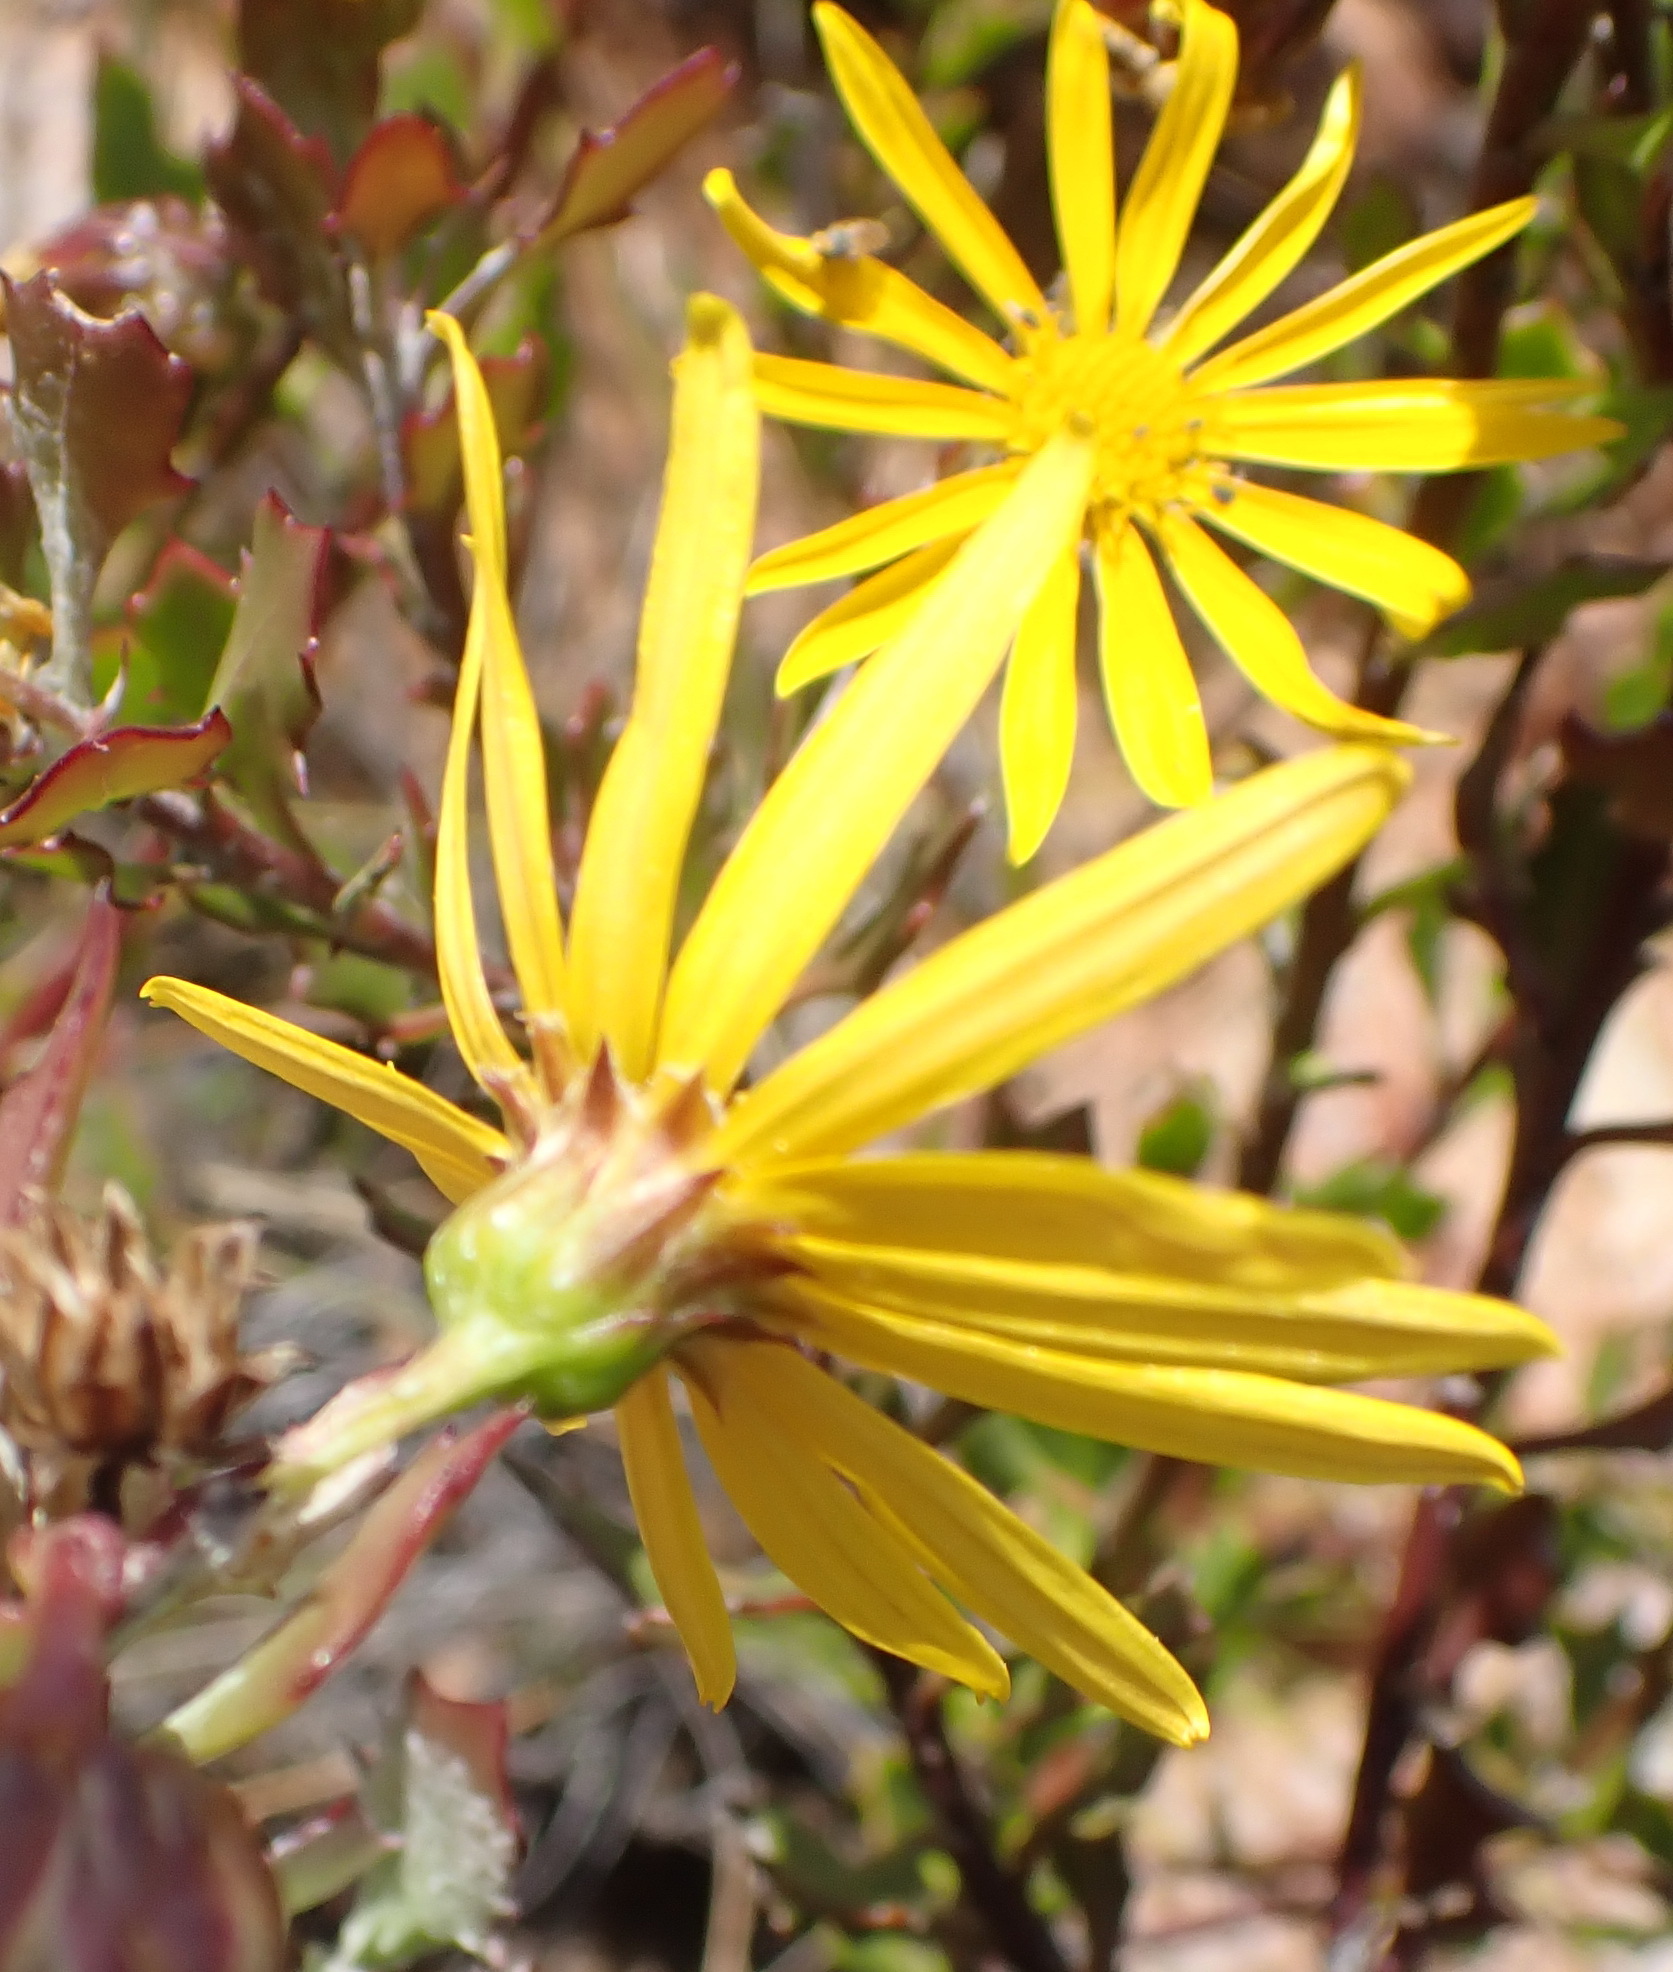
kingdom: Plantae
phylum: Tracheophyta
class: Magnoliopsida
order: Asterales
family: Asteraceae
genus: Osteospermum
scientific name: Osteospermum moniliferum
